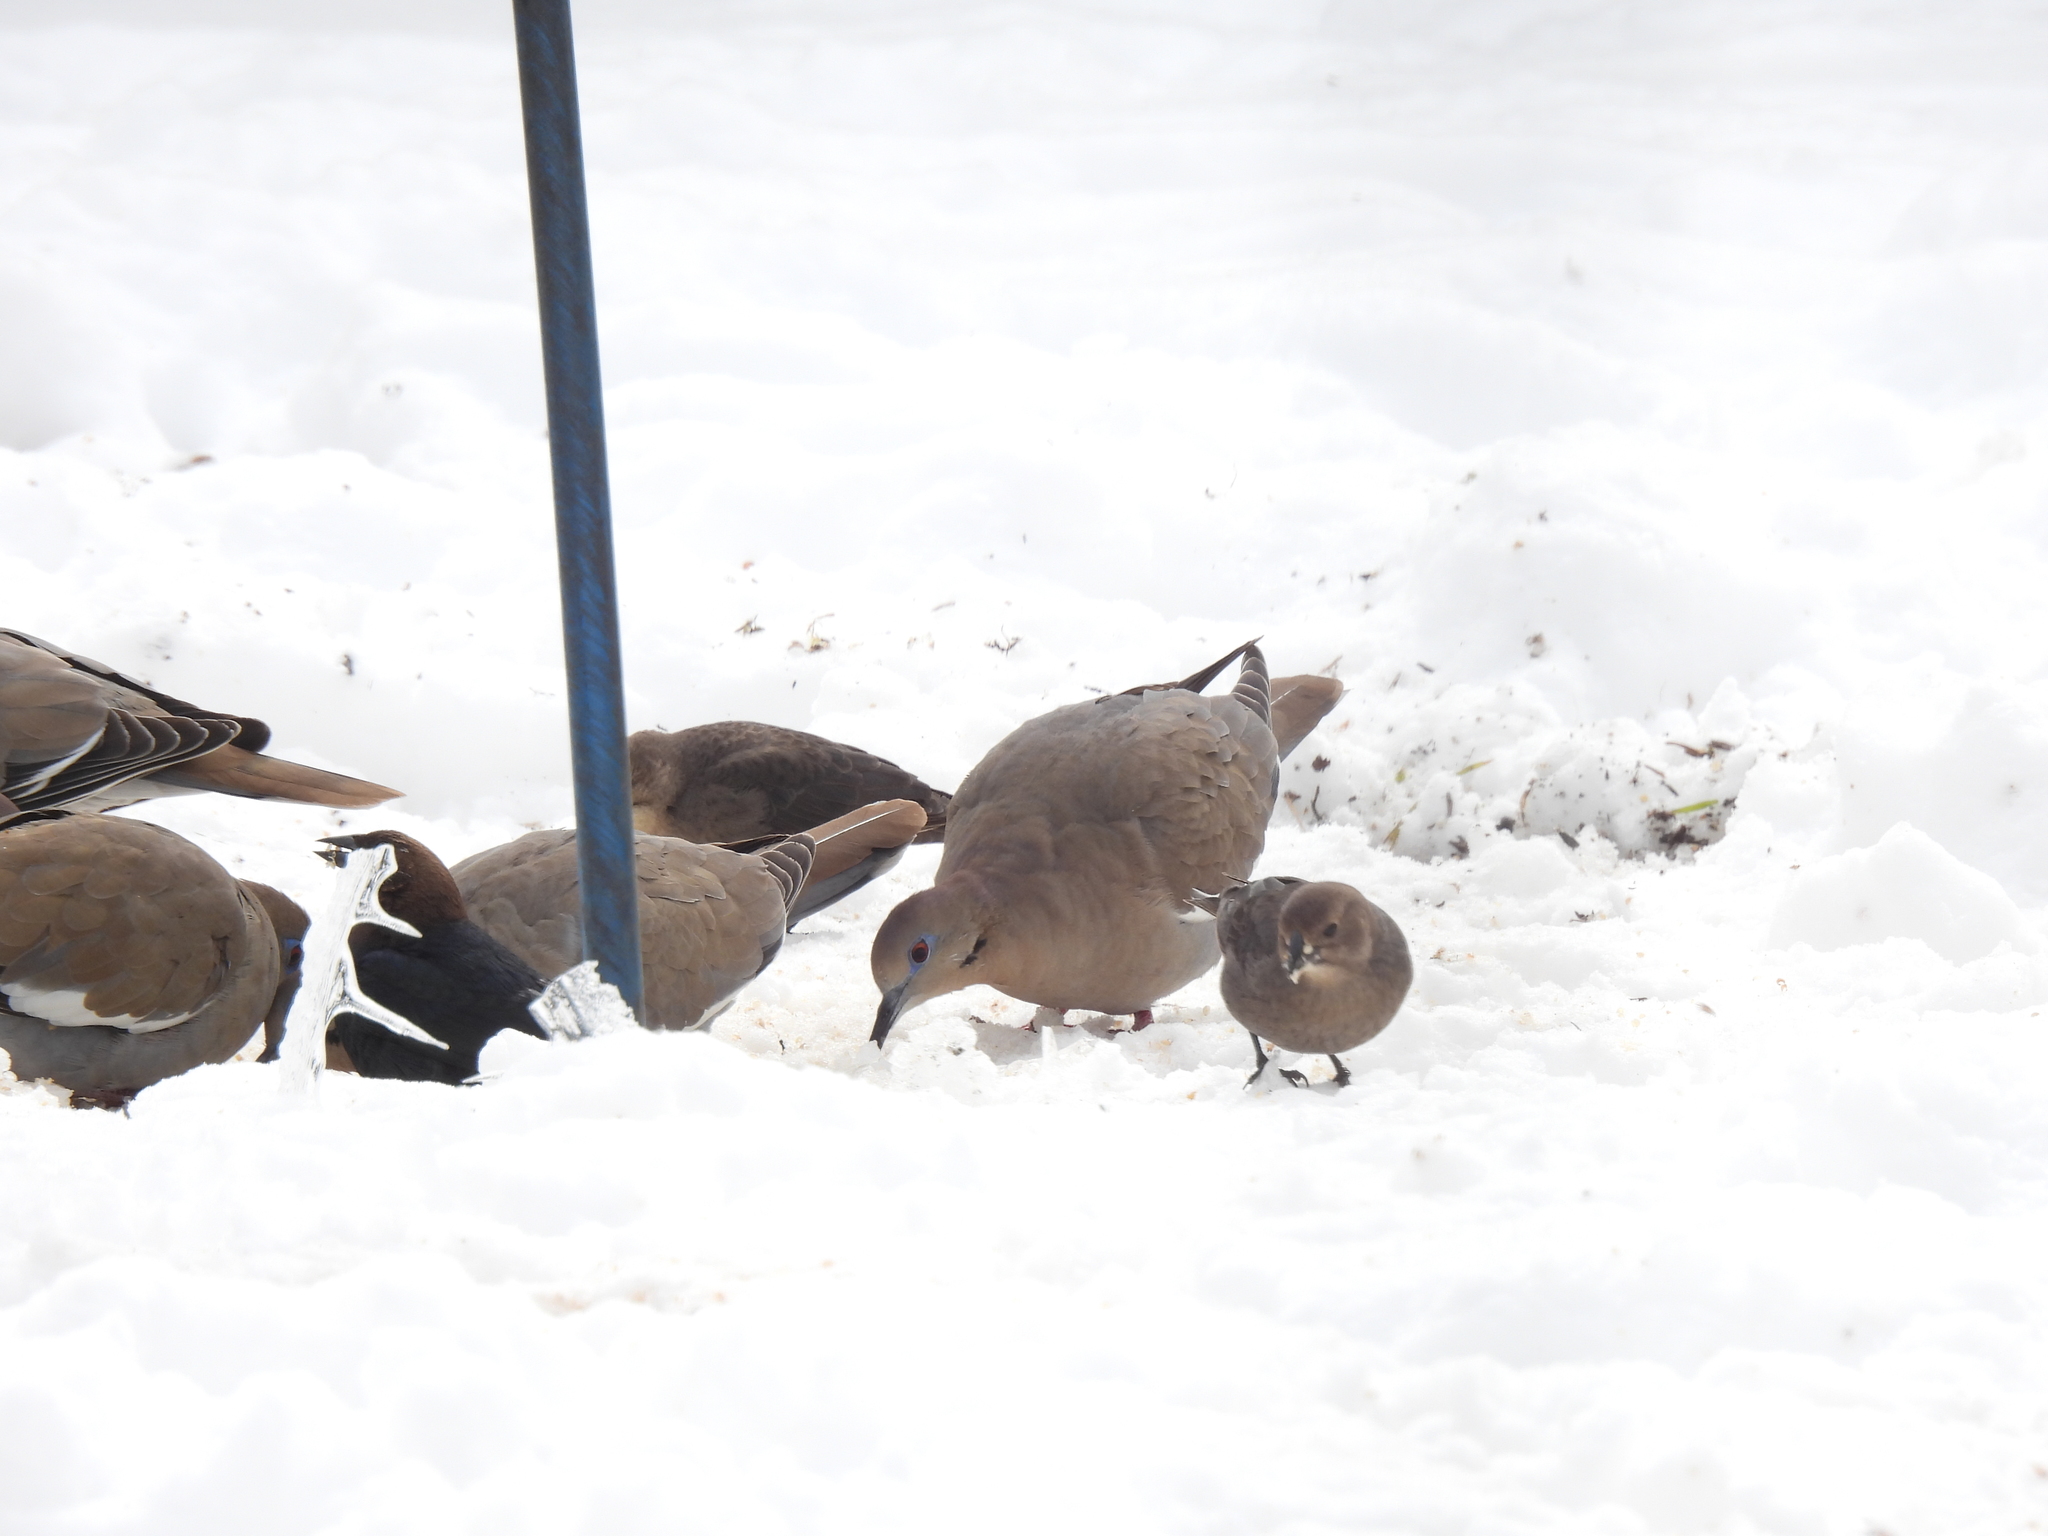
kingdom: Animalia
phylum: Chordata
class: Aves
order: Columbiformes
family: Columbidae
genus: Zenaida
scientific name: Zenaida asiatica
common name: White-winged dove
